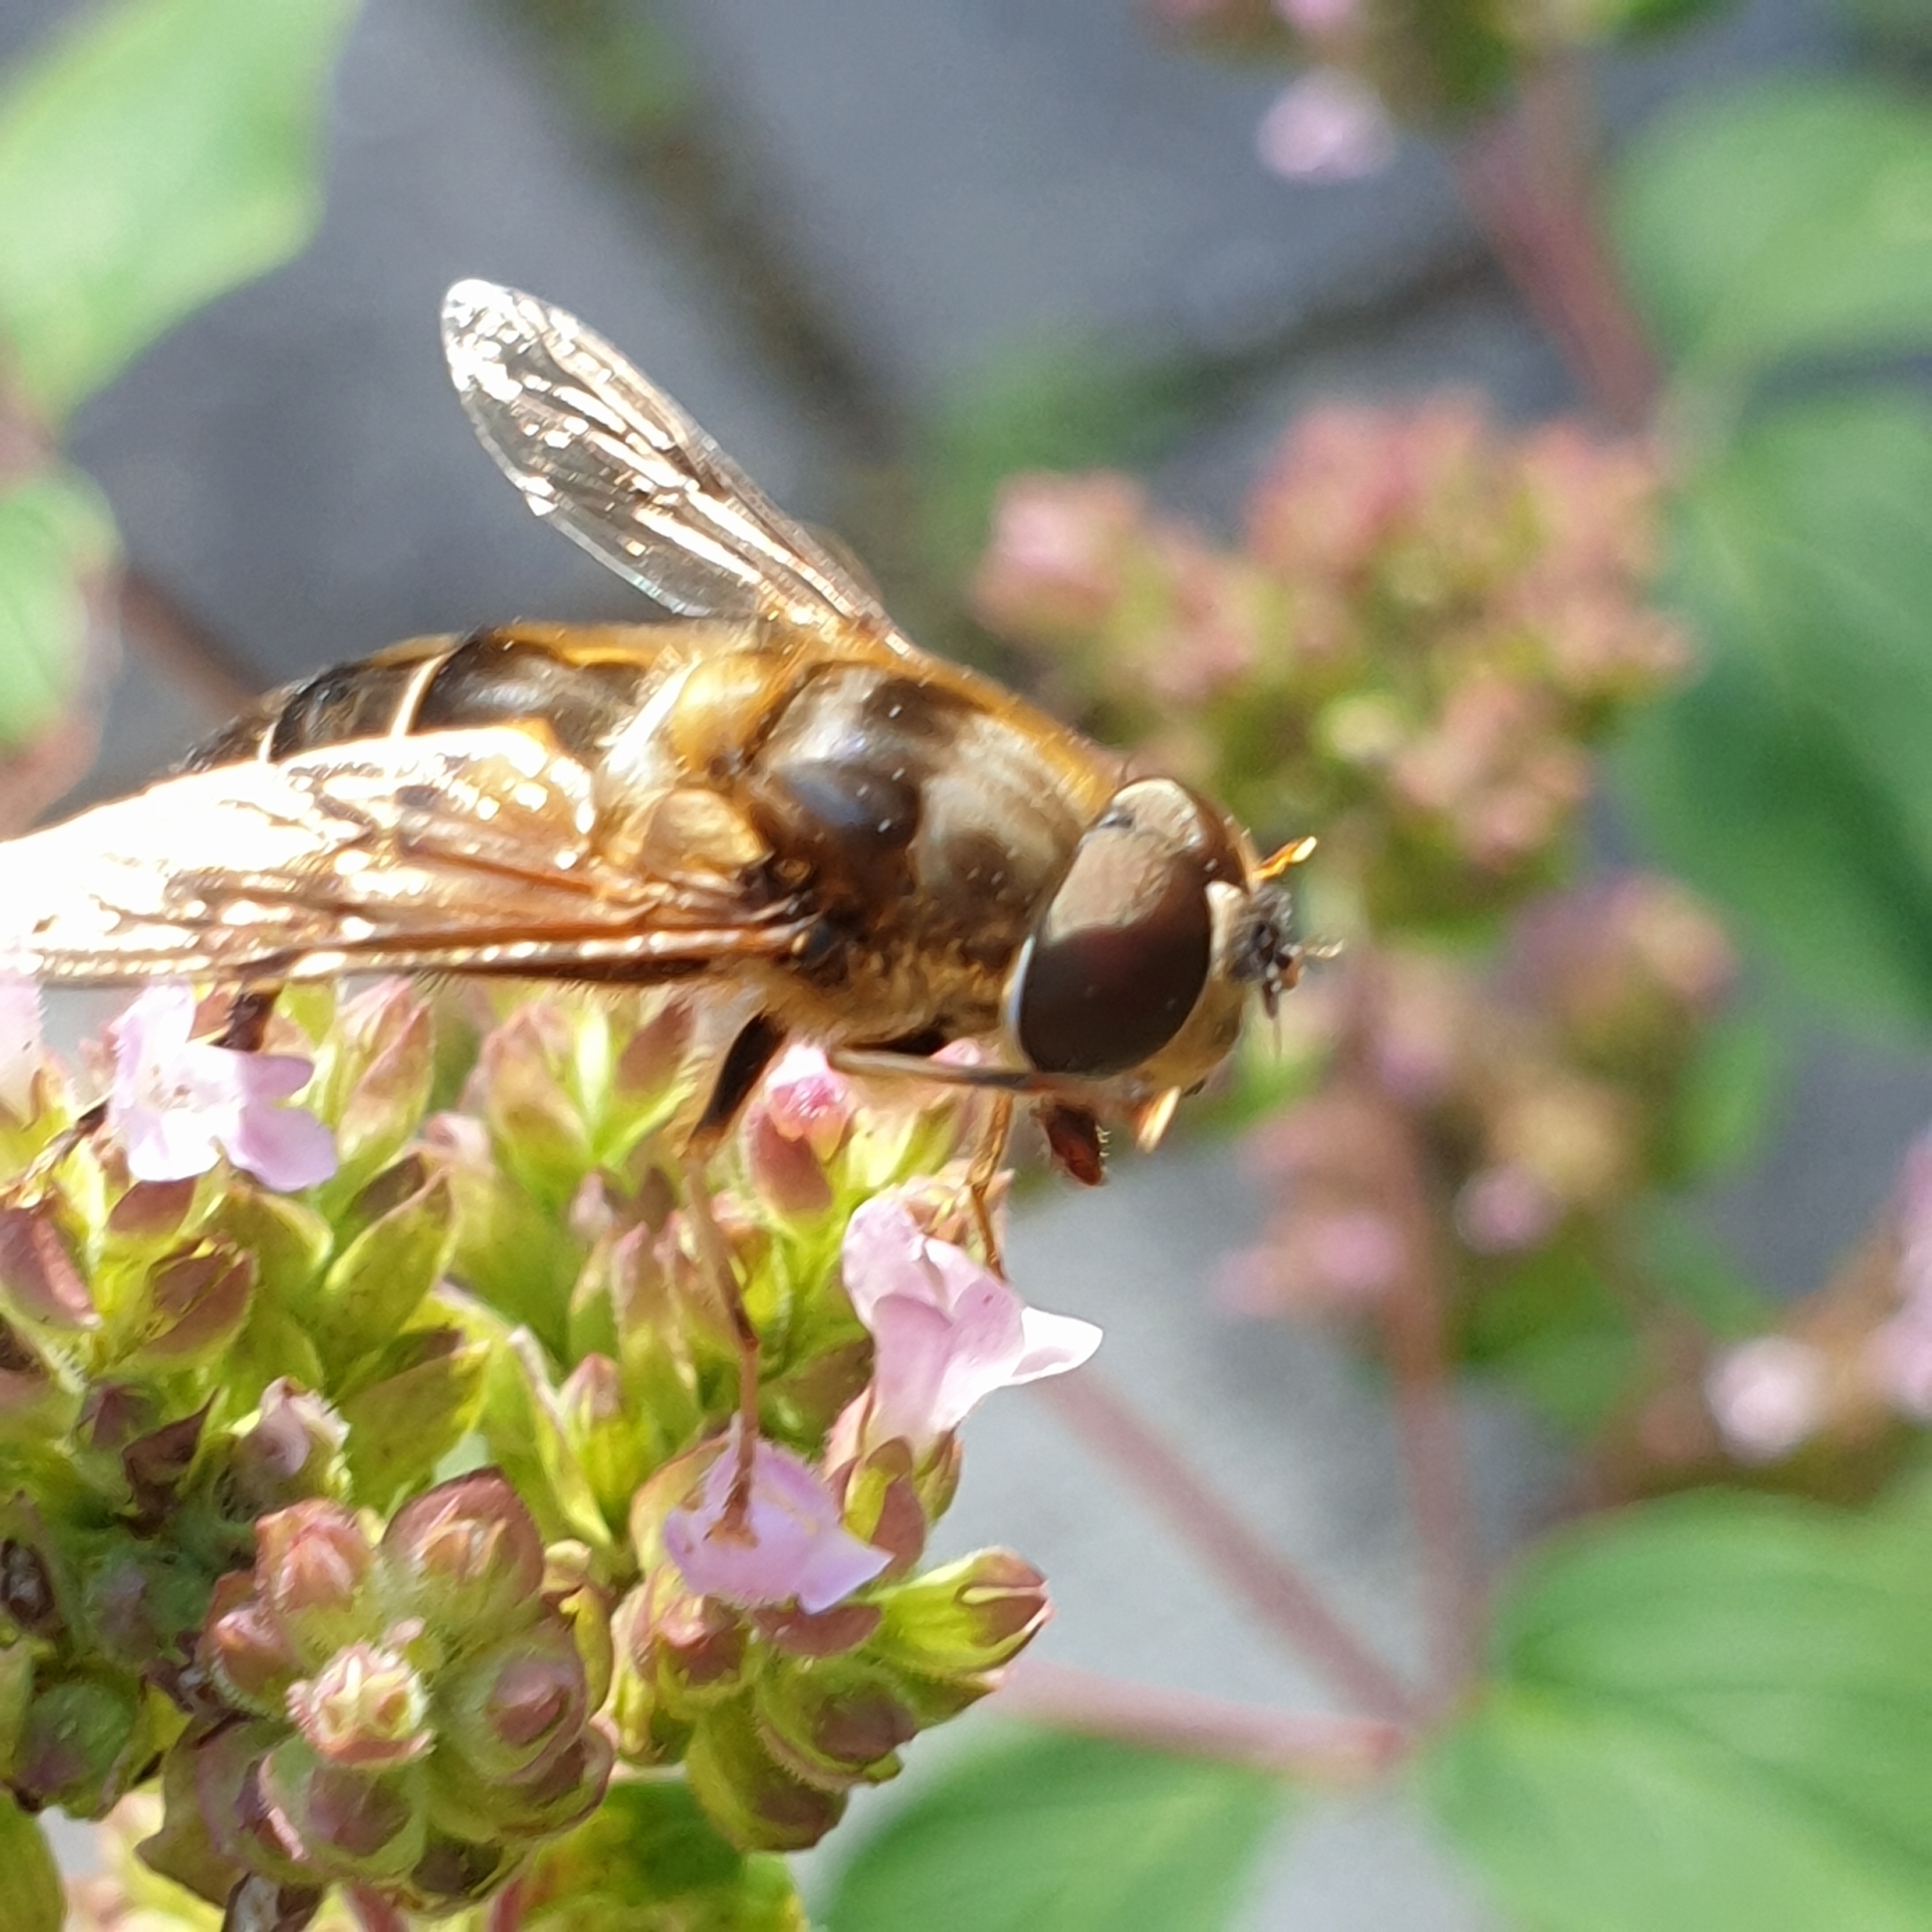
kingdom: Animalia
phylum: Arthropoda
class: Insecta
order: Diptera
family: Syrphidae
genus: Eristalis
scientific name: Eristalis pertinax
